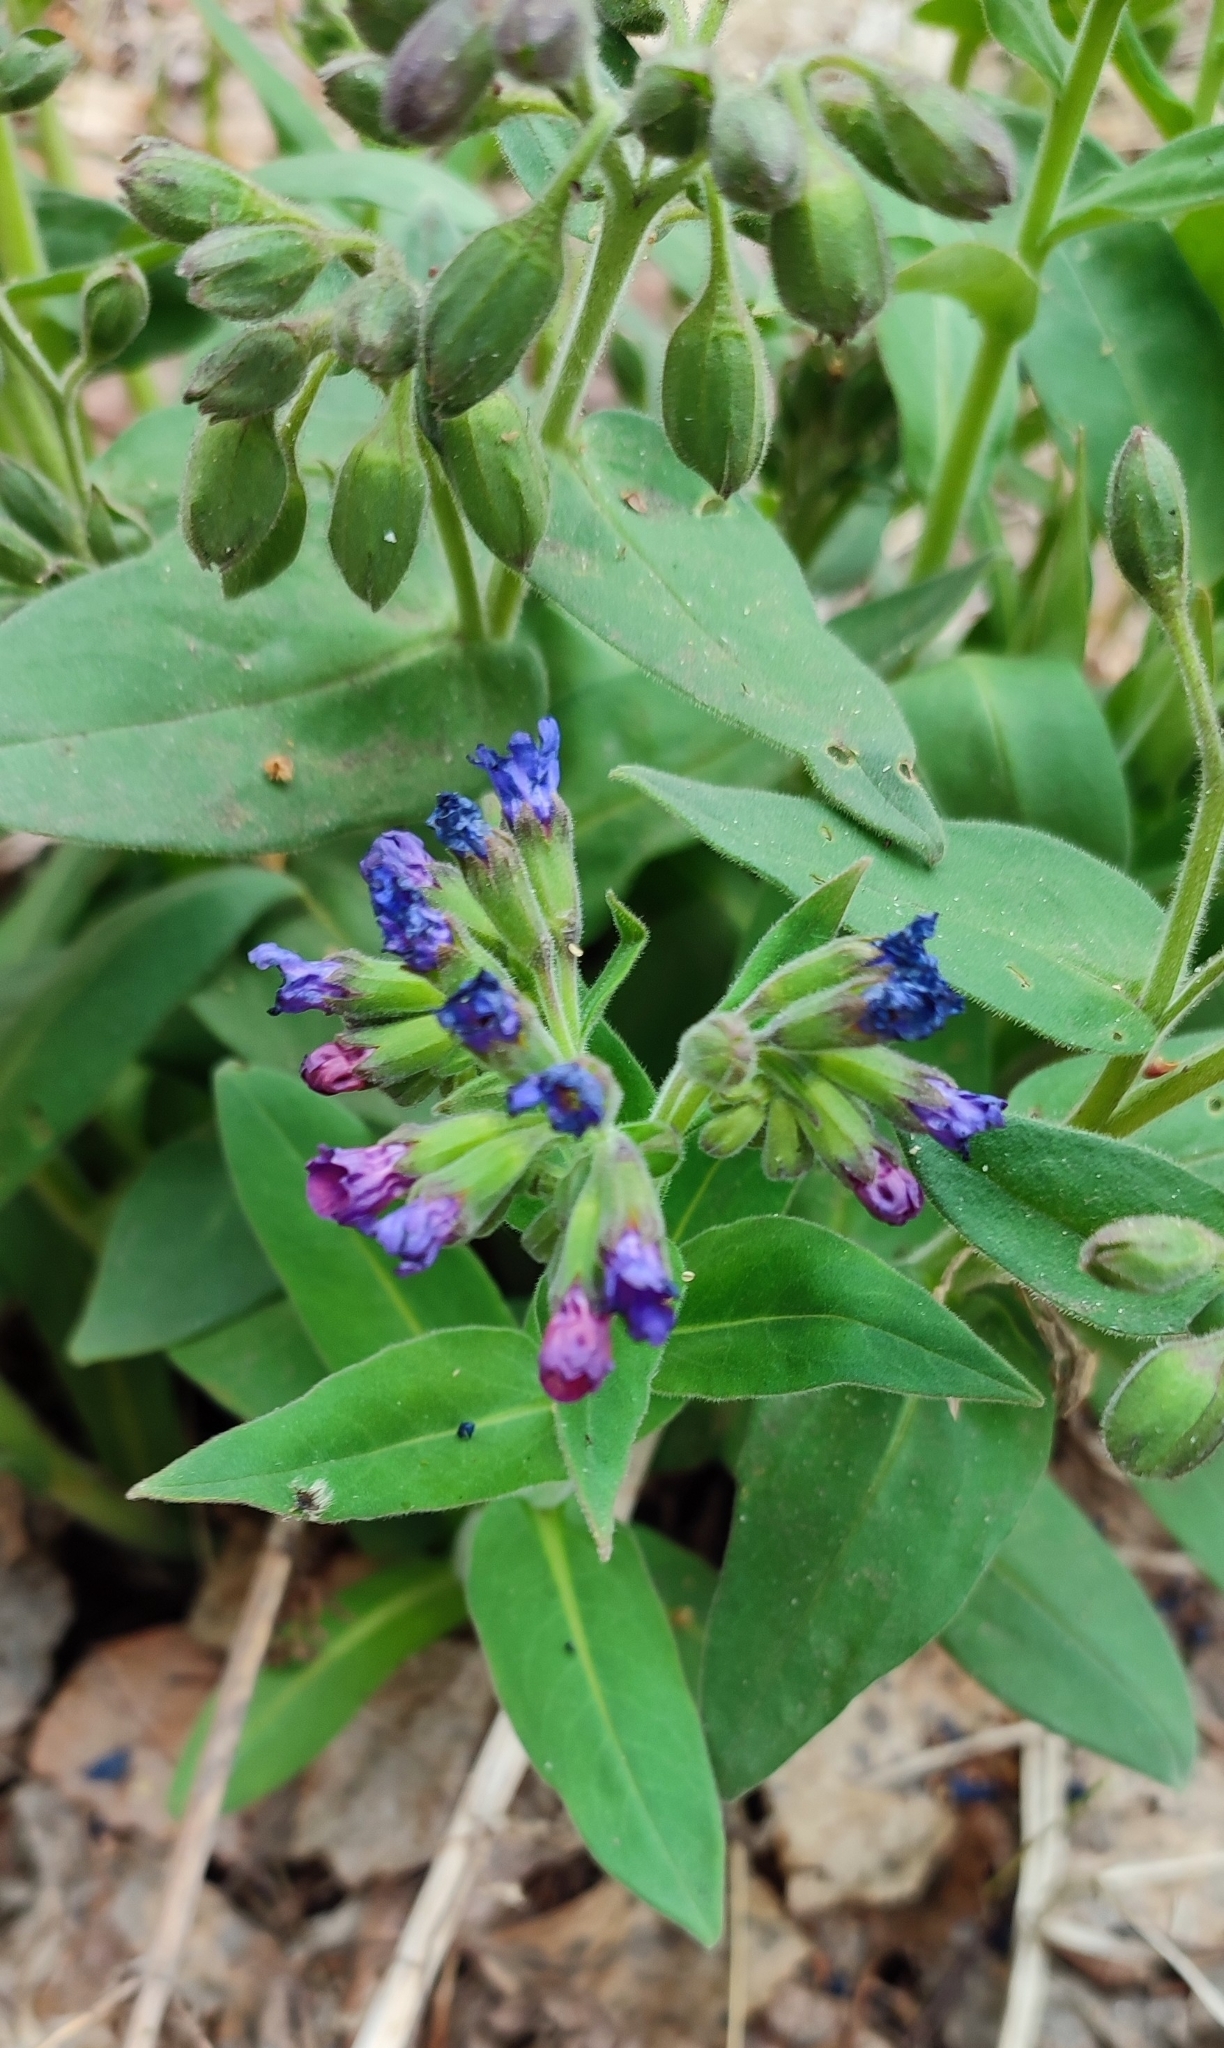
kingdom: Plantae
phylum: Tracheophyta
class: Magnoliopsida
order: Boraginales
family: Boraginaceae
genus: Pulmonaria
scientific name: Pulmonaria mollis
